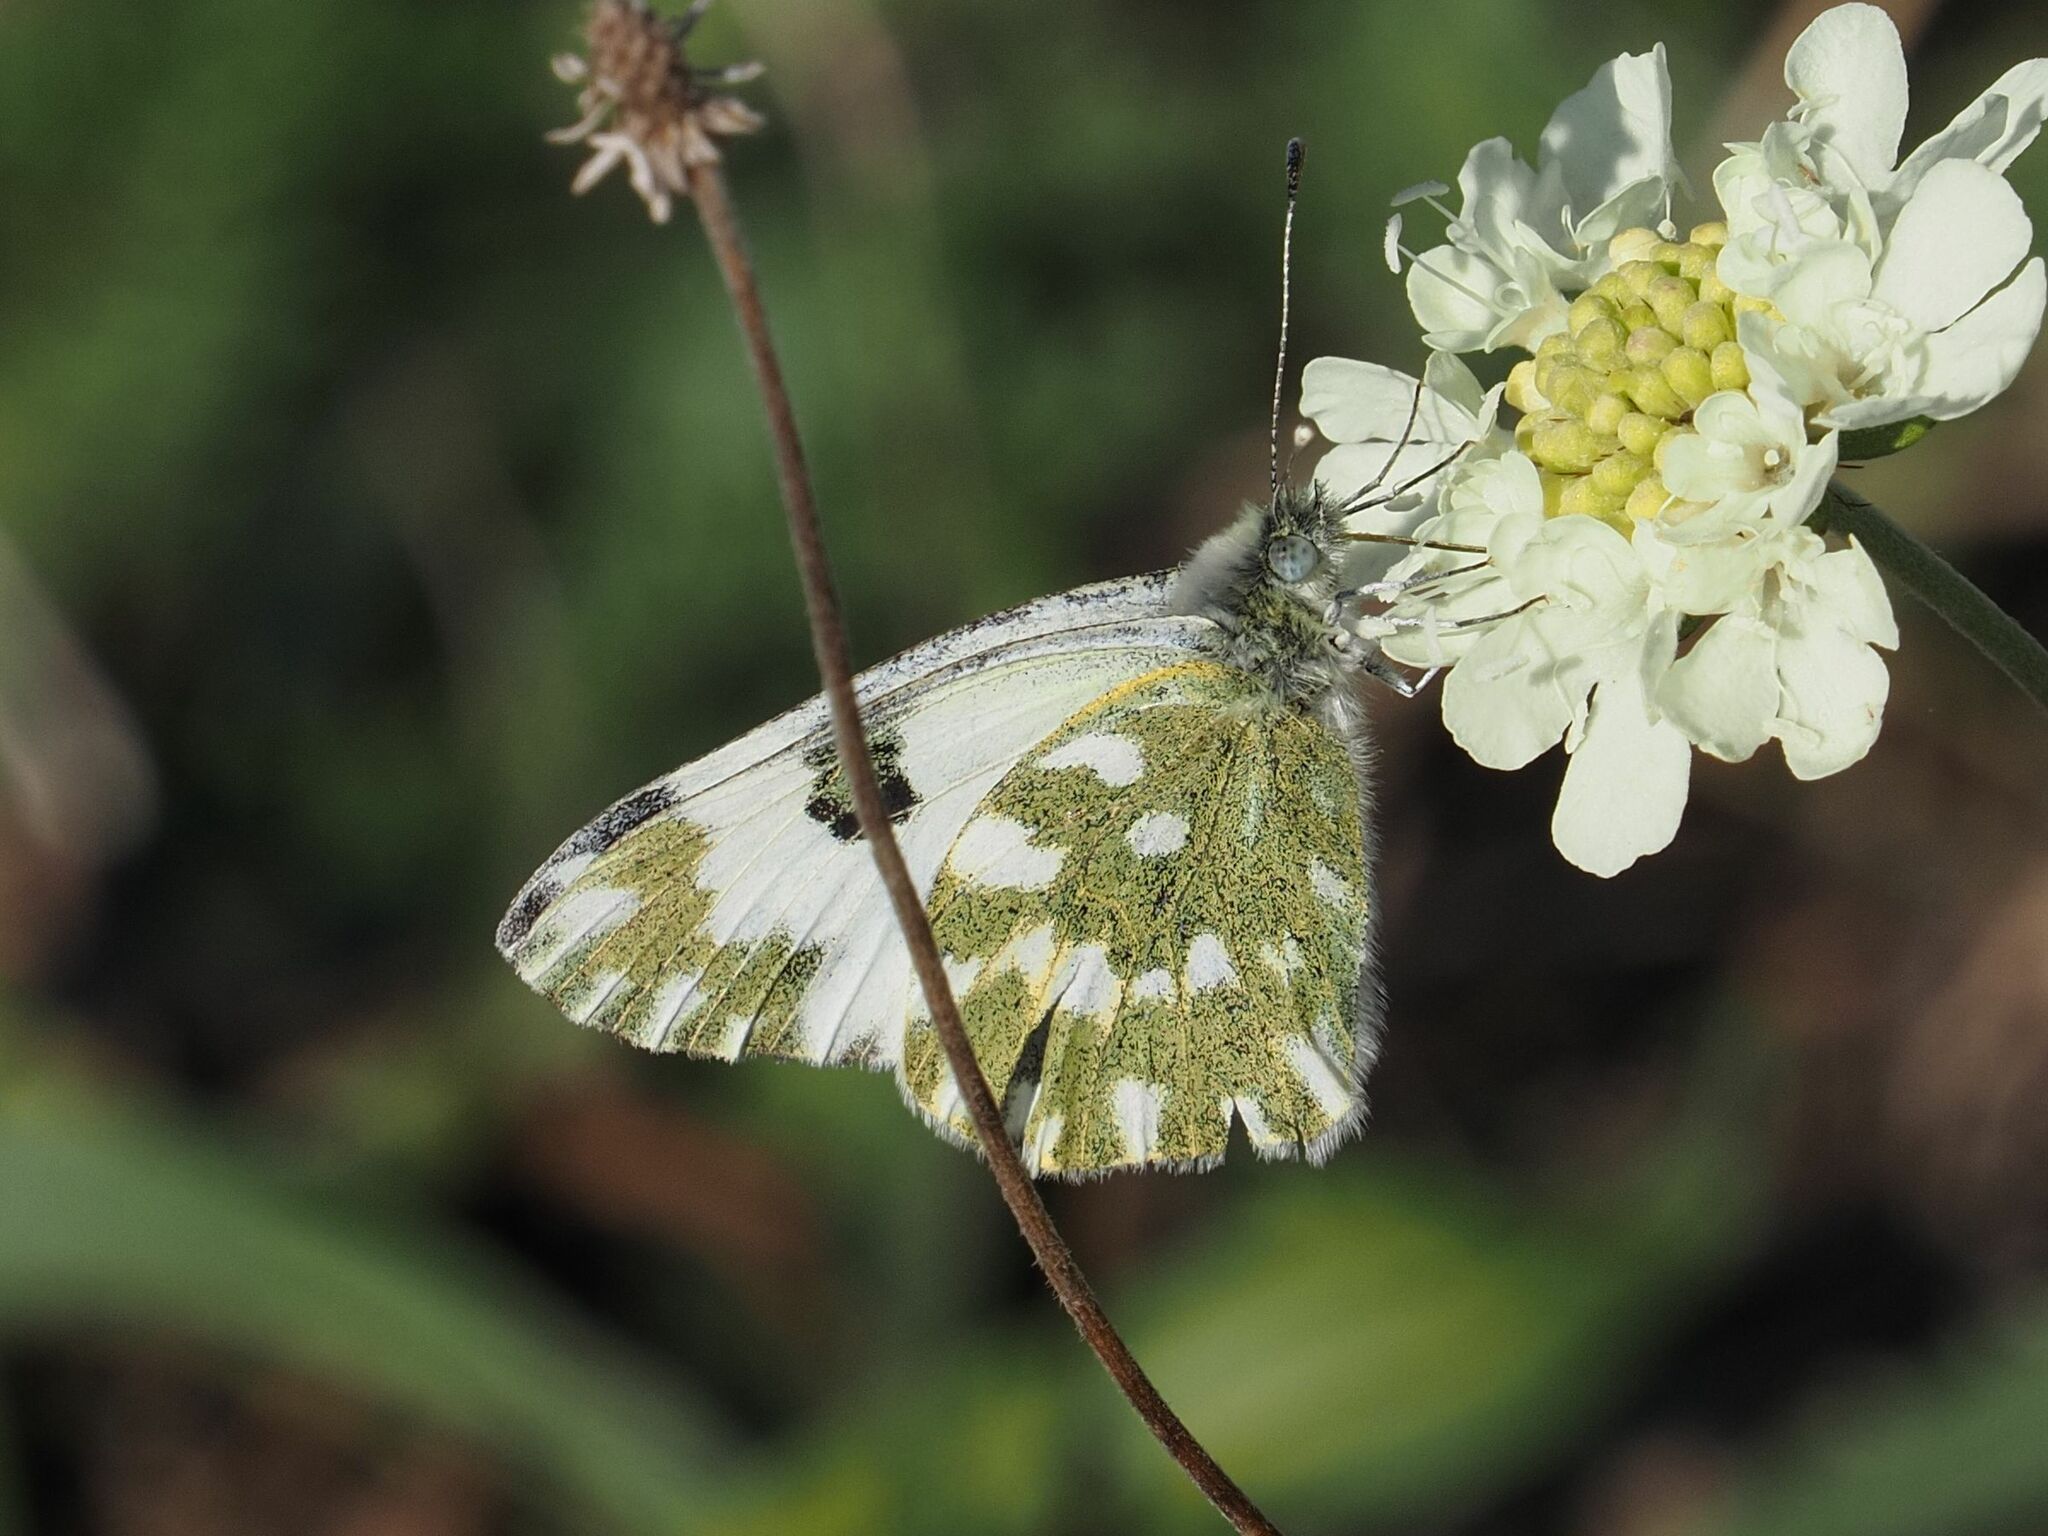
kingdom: Animalia
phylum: Arthropoda
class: Insecta
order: Lepidoptera
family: Pieridae
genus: Pontia
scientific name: Pontia edusa
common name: Eastern bath white
